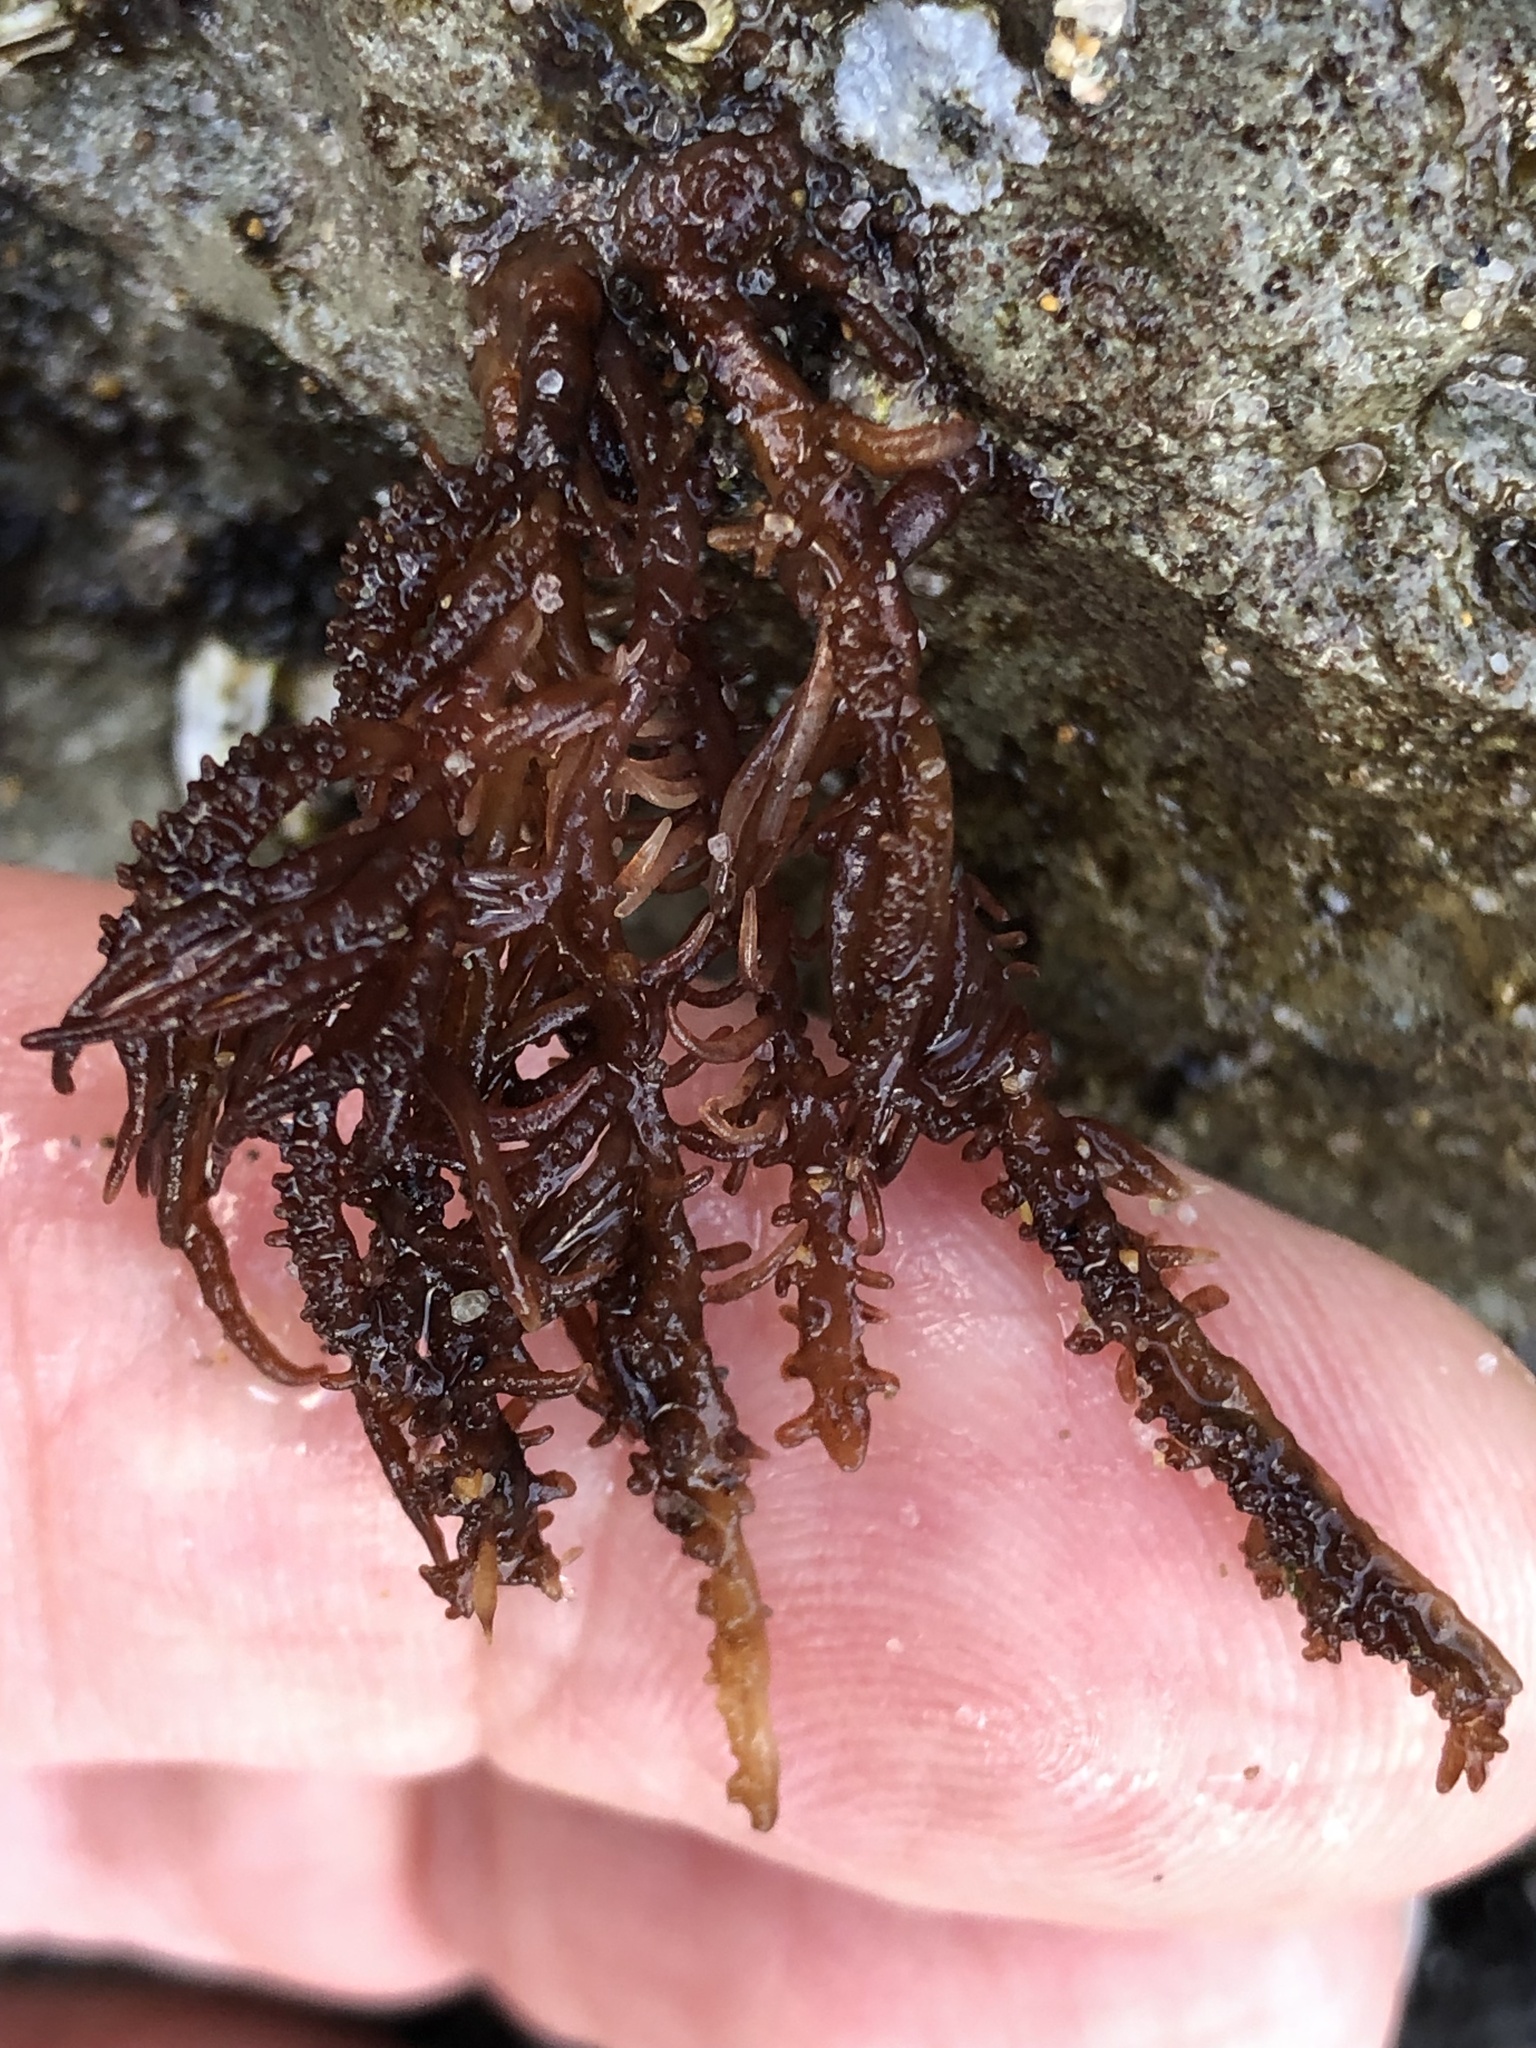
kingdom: Plantae
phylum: Rhodophyta
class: Florideophyceae
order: Nemaliales
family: Liagoraceae
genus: Cumagloia
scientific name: Cumagloia andersonii
